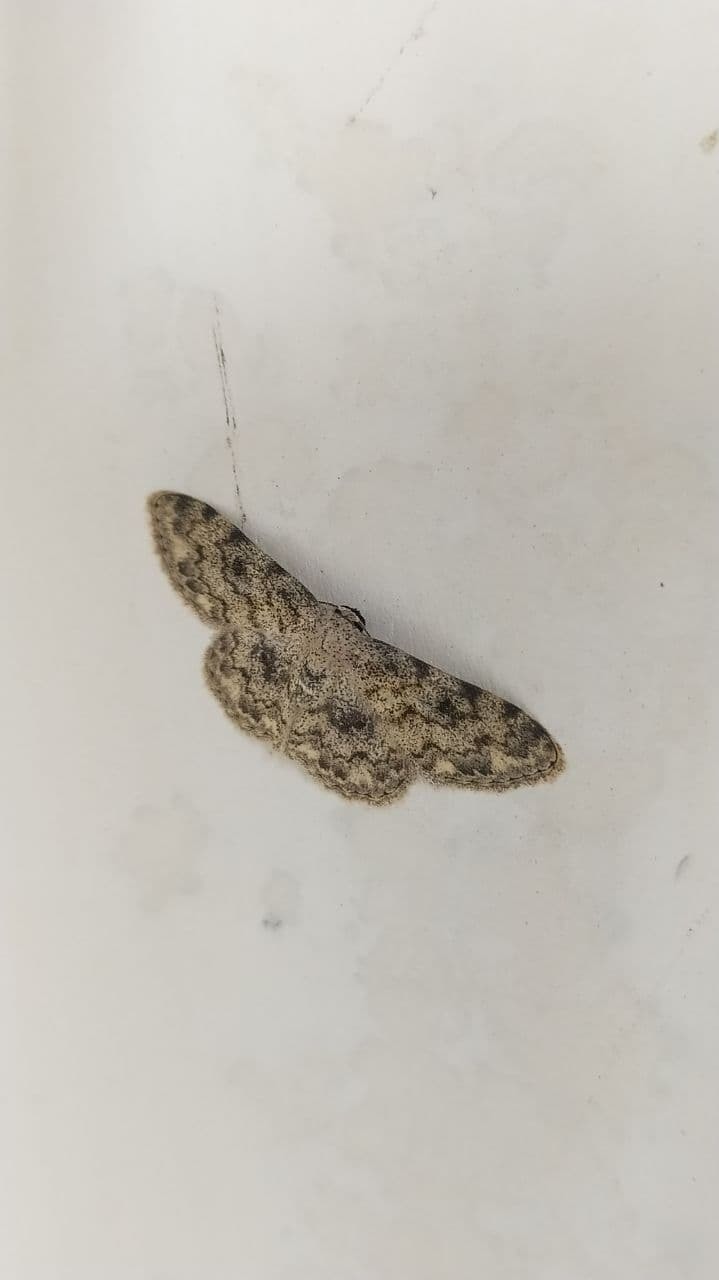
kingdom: Animalia
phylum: Arthropoda
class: Insecta
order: Lepidoptera
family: Geometridae
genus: Scopula
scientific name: Scopula fibulata
